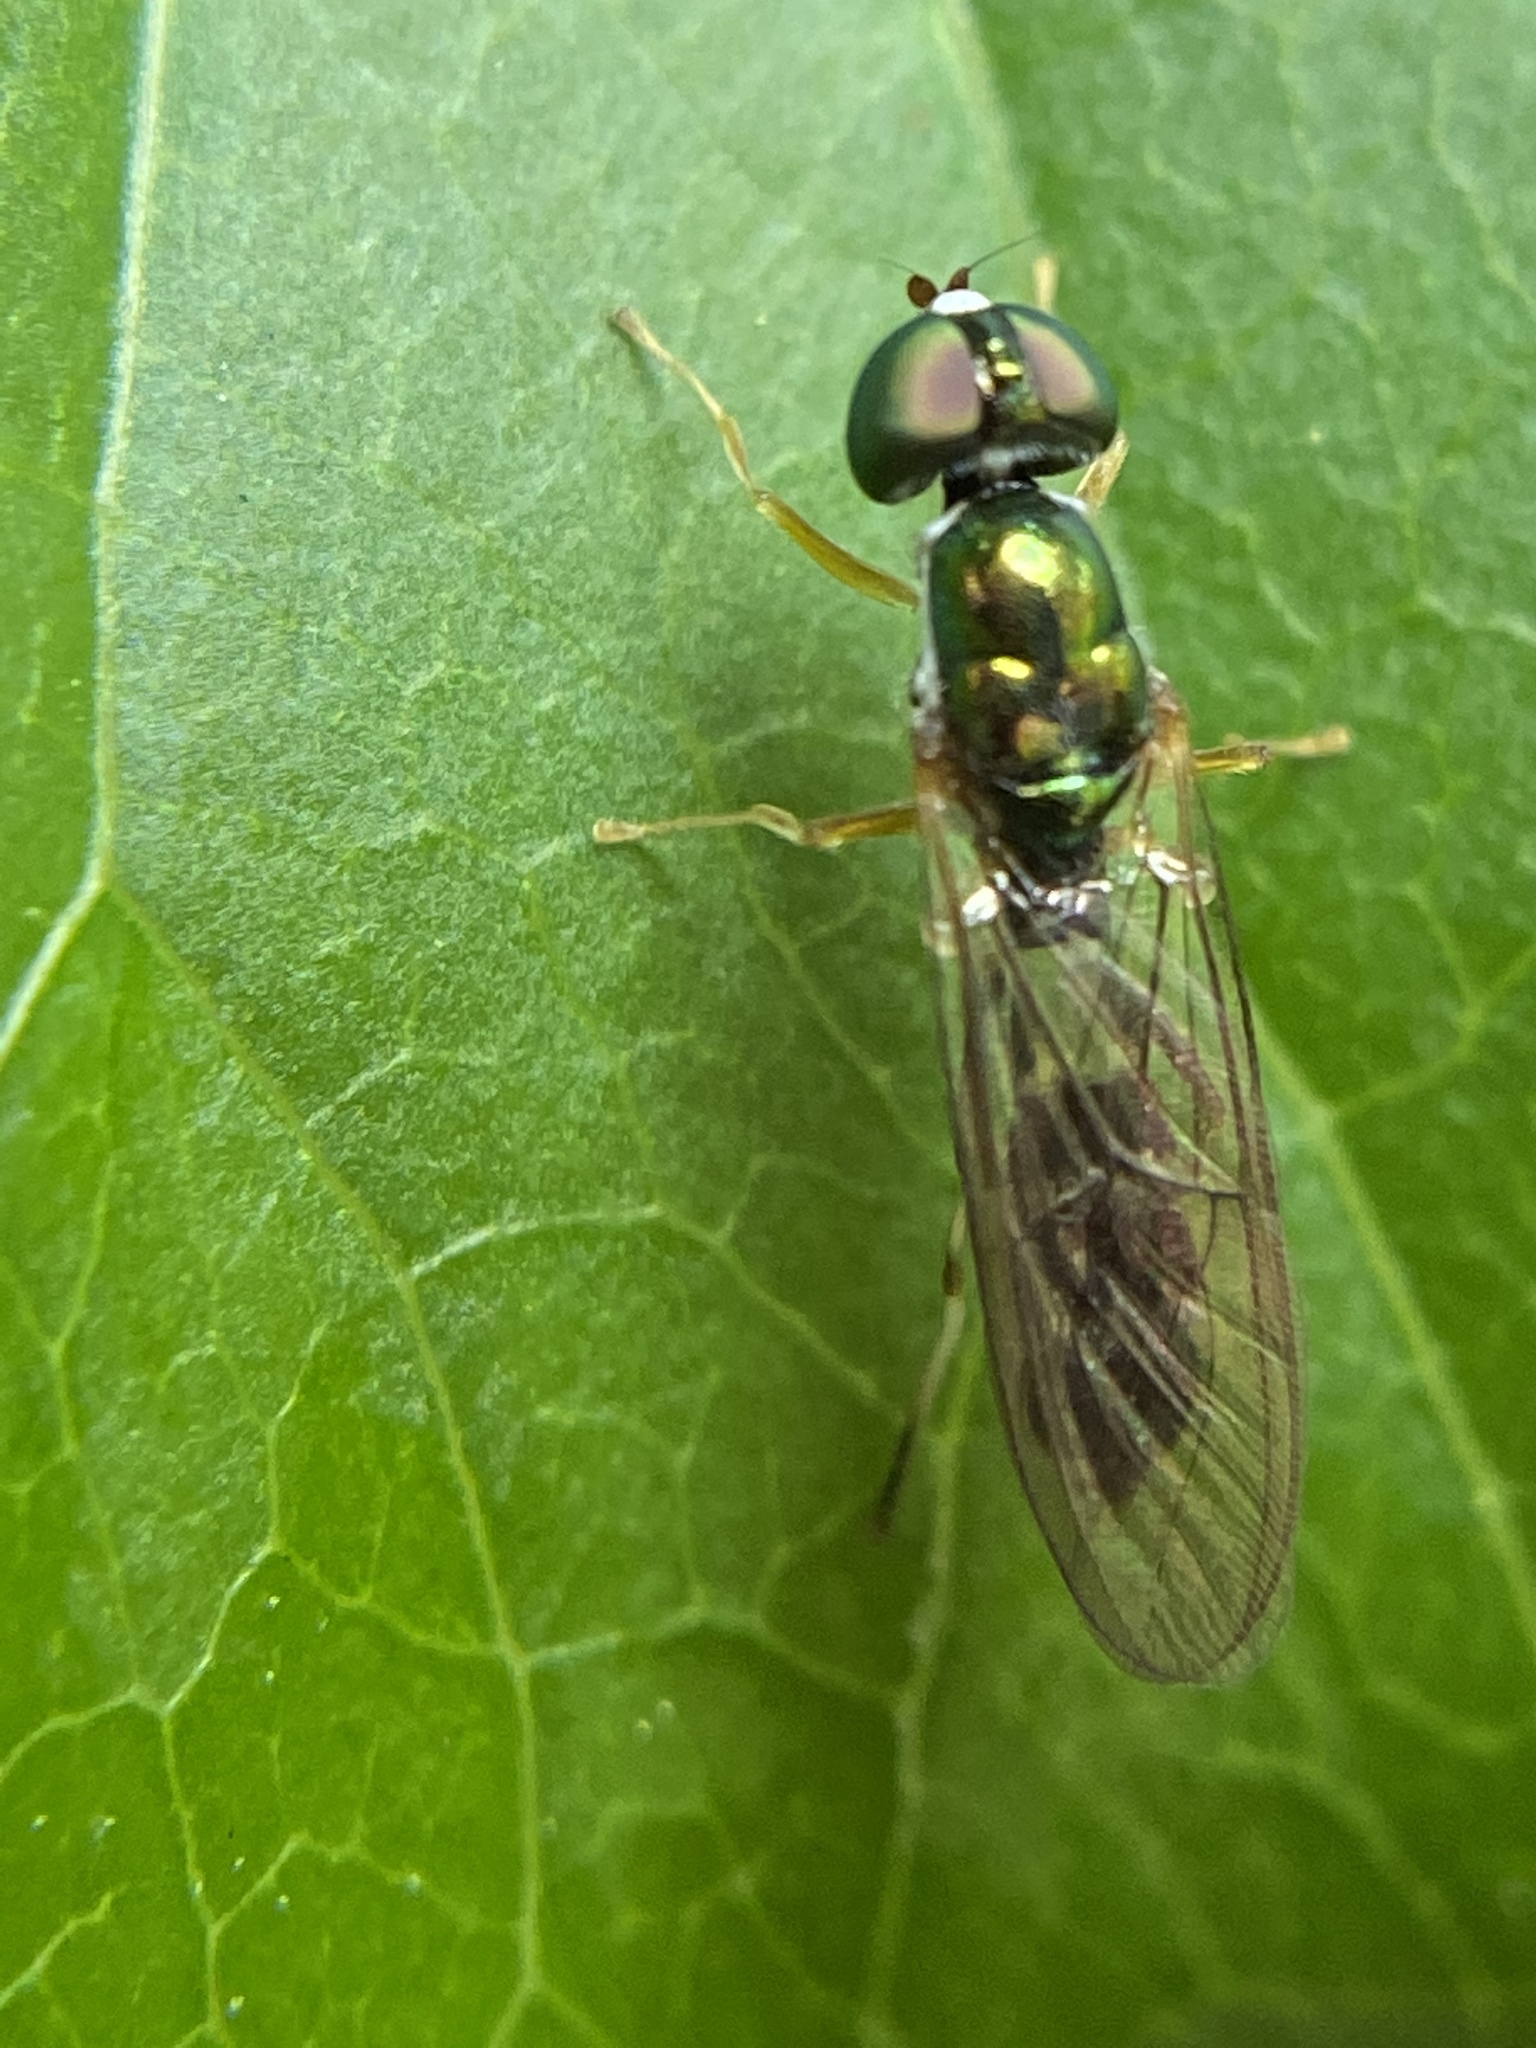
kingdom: Animalia
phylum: Arthropoda
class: Insecta
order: Diptera
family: Stratiomyidae
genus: Sargus
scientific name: Sargus fasciatus
